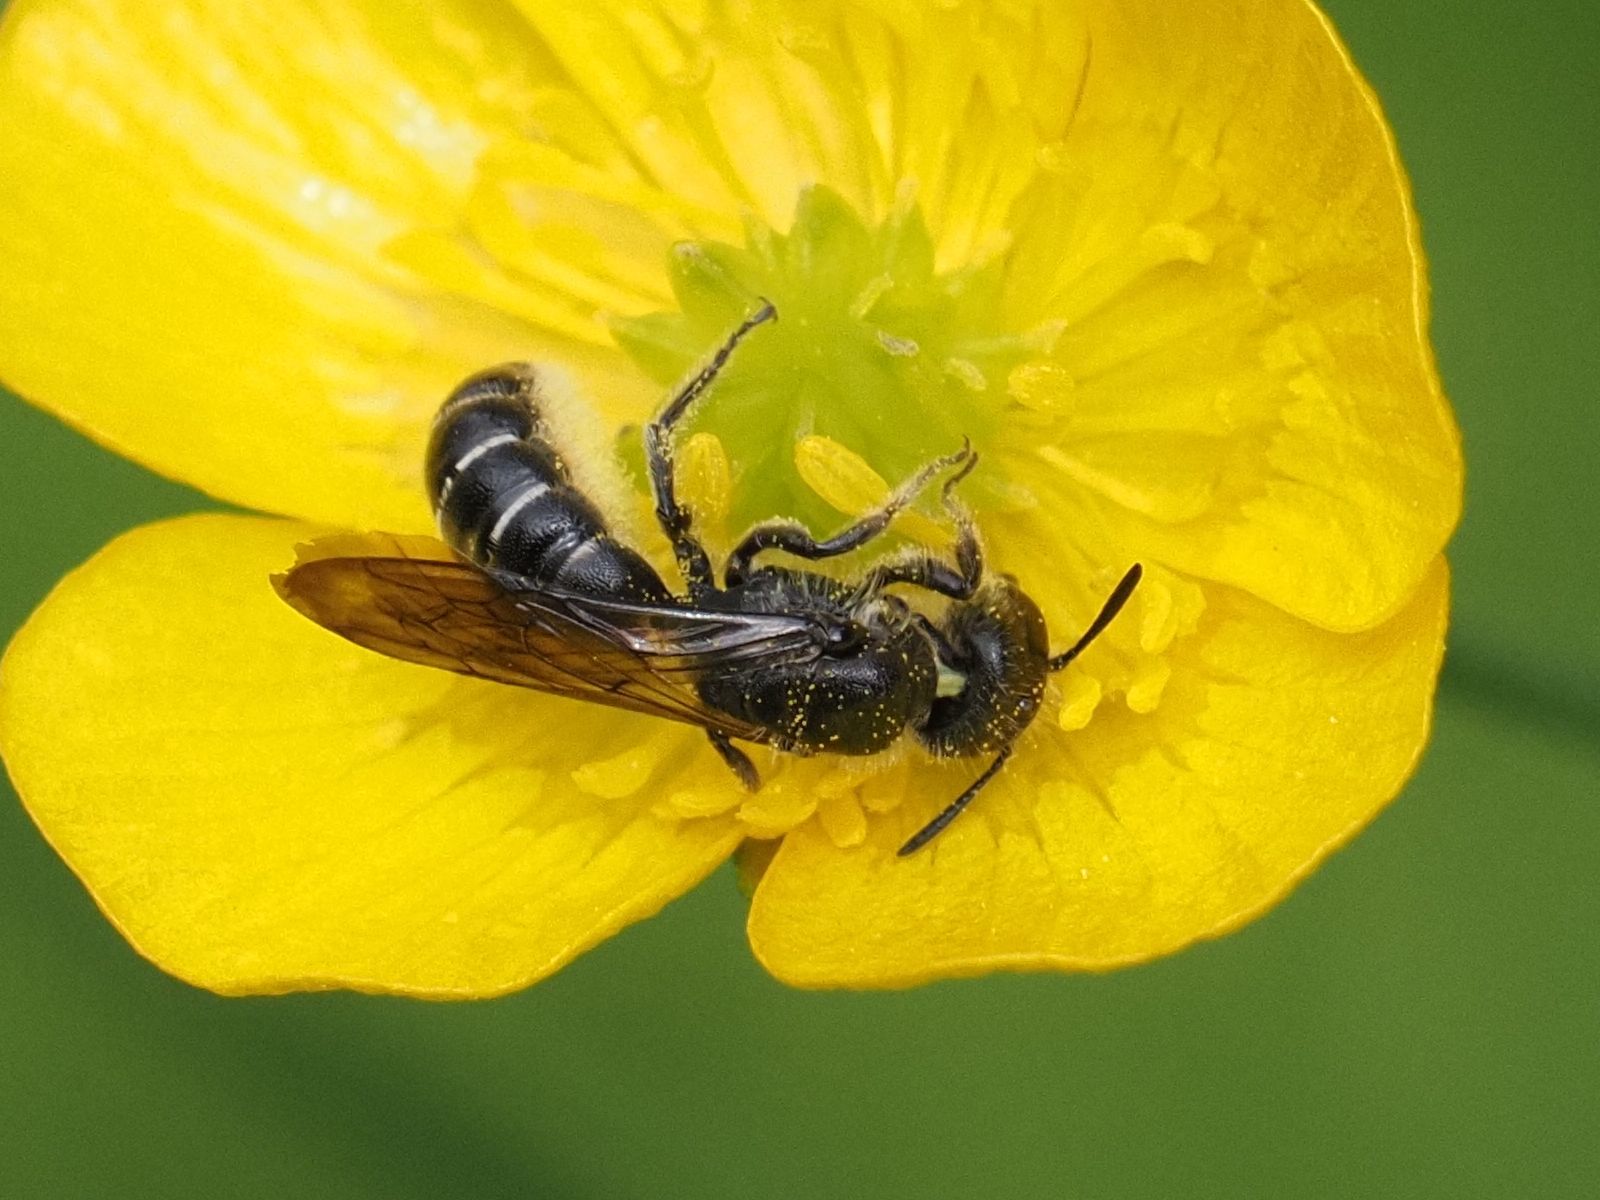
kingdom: Animalia
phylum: Arthropoda
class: Insecta
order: Hymenoptera
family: Megachilidae
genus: Chelostoma
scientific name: Chelostoma florisomne
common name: Sleepy carpenter bee
